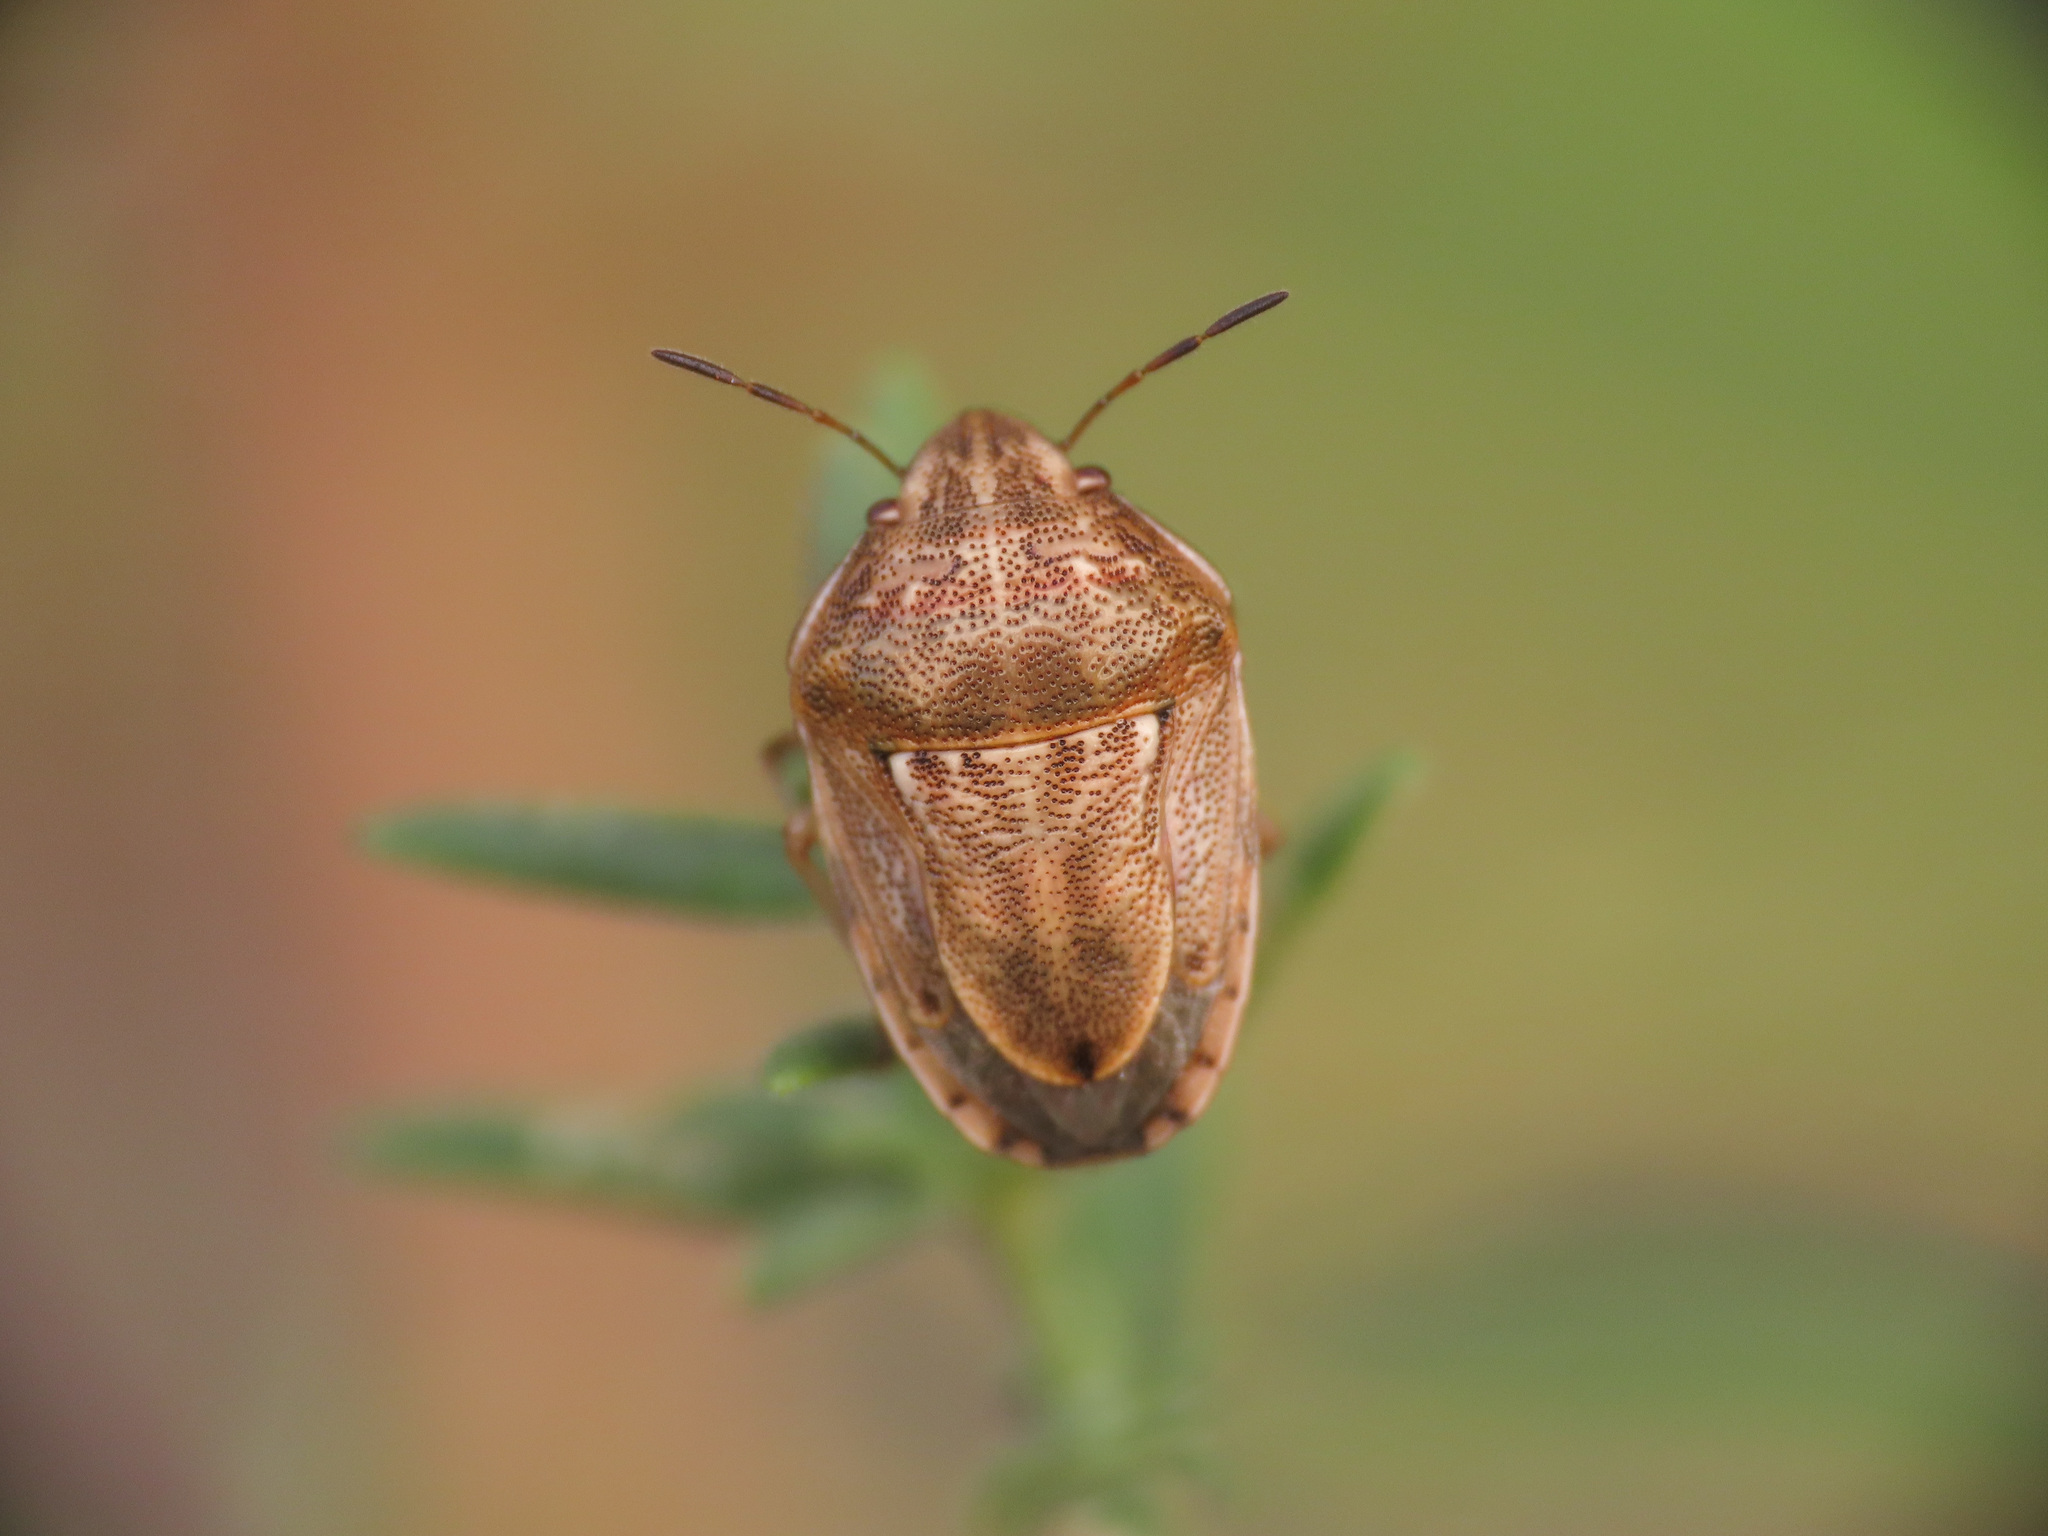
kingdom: Animalia
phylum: Arthropoda
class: Insecta
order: Hemiptera
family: Pentatomidae
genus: Neottiglossa
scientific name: Neottiglossa leporina
